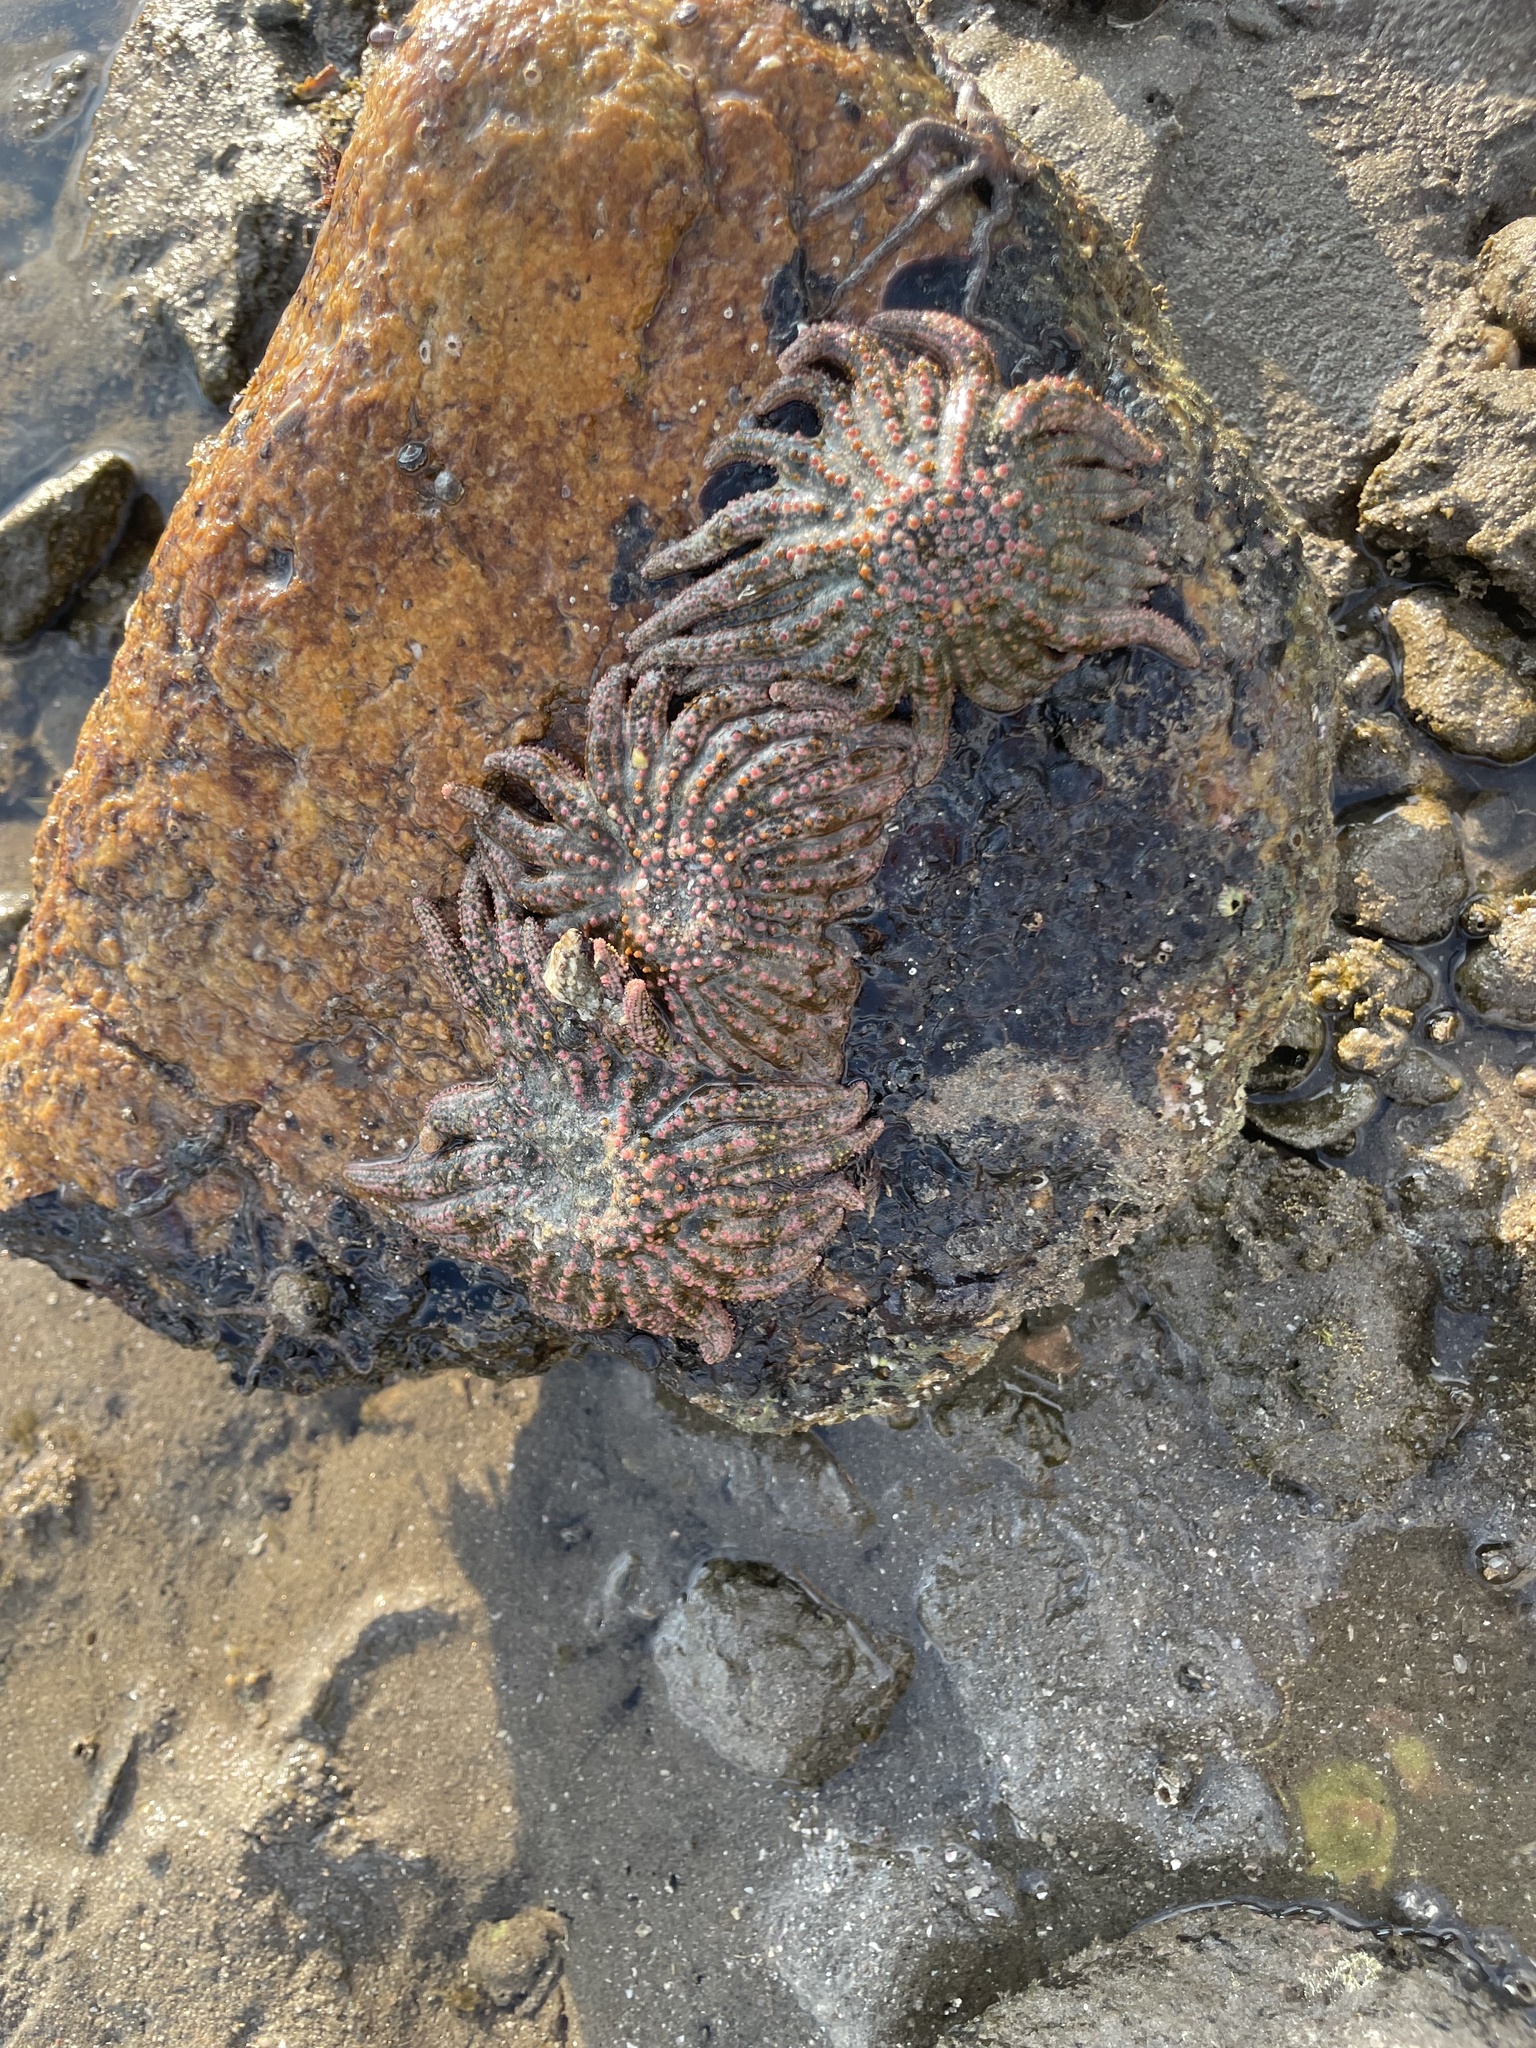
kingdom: Animalia
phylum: Echinodermata
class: Asteroidea
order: Forcipulatida
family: Heliasteridae
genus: Heliaster
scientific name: Heliaster kubiniji
